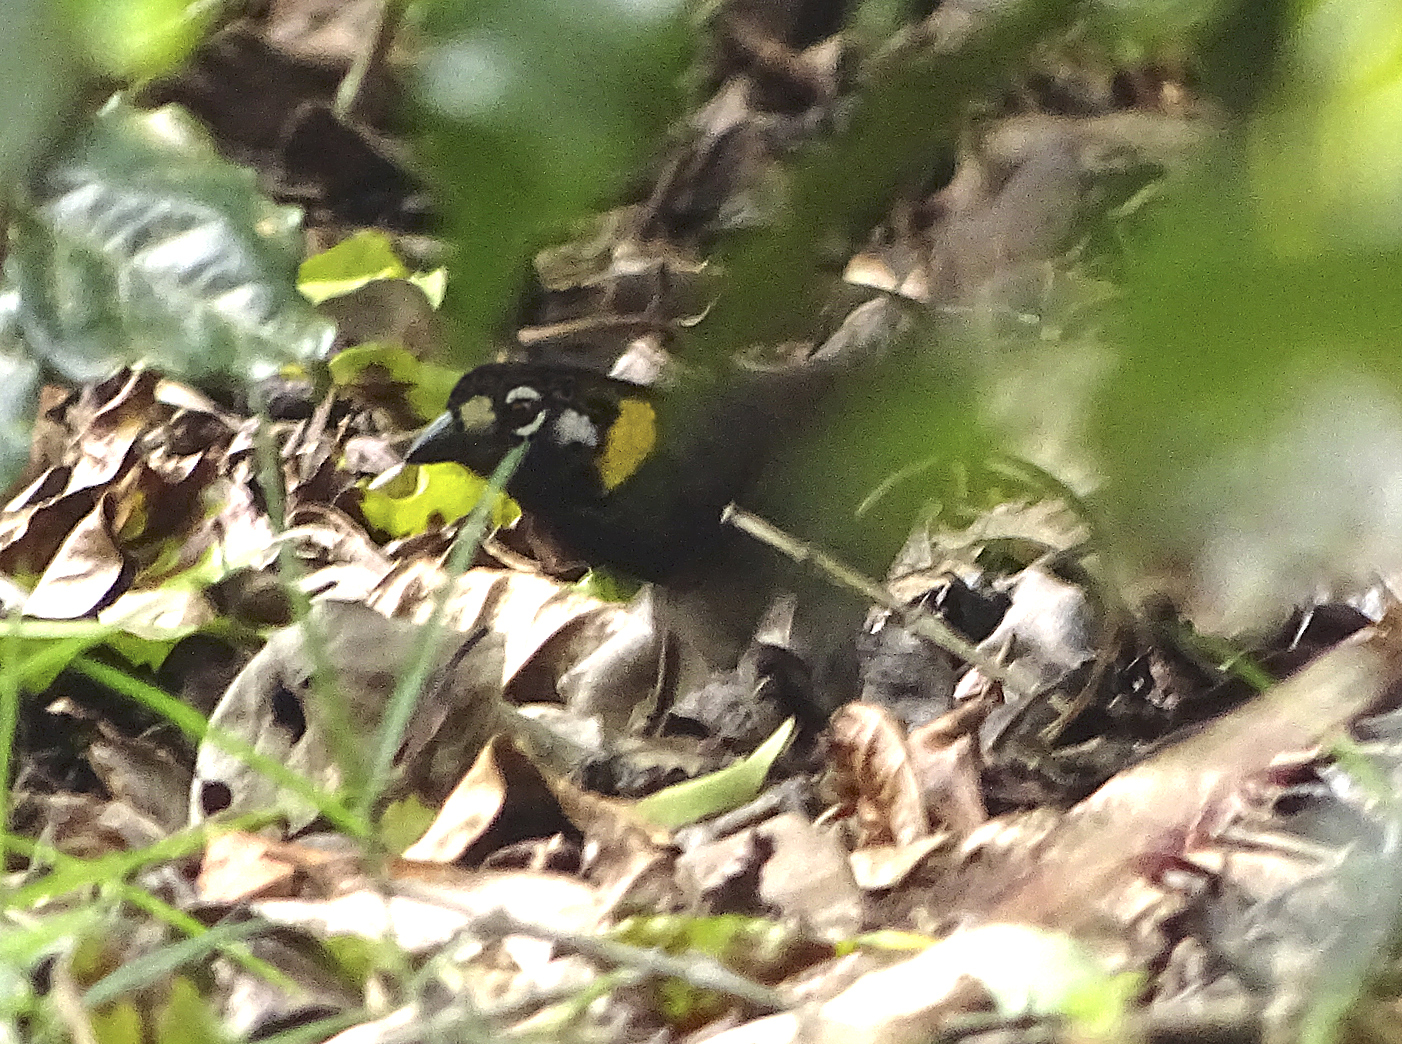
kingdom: Animalia
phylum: Chordata
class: Aves
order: Passeriformes
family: Passerellidae
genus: Melozone
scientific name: Melozone leucotis
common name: White-eared ground-sparrow
